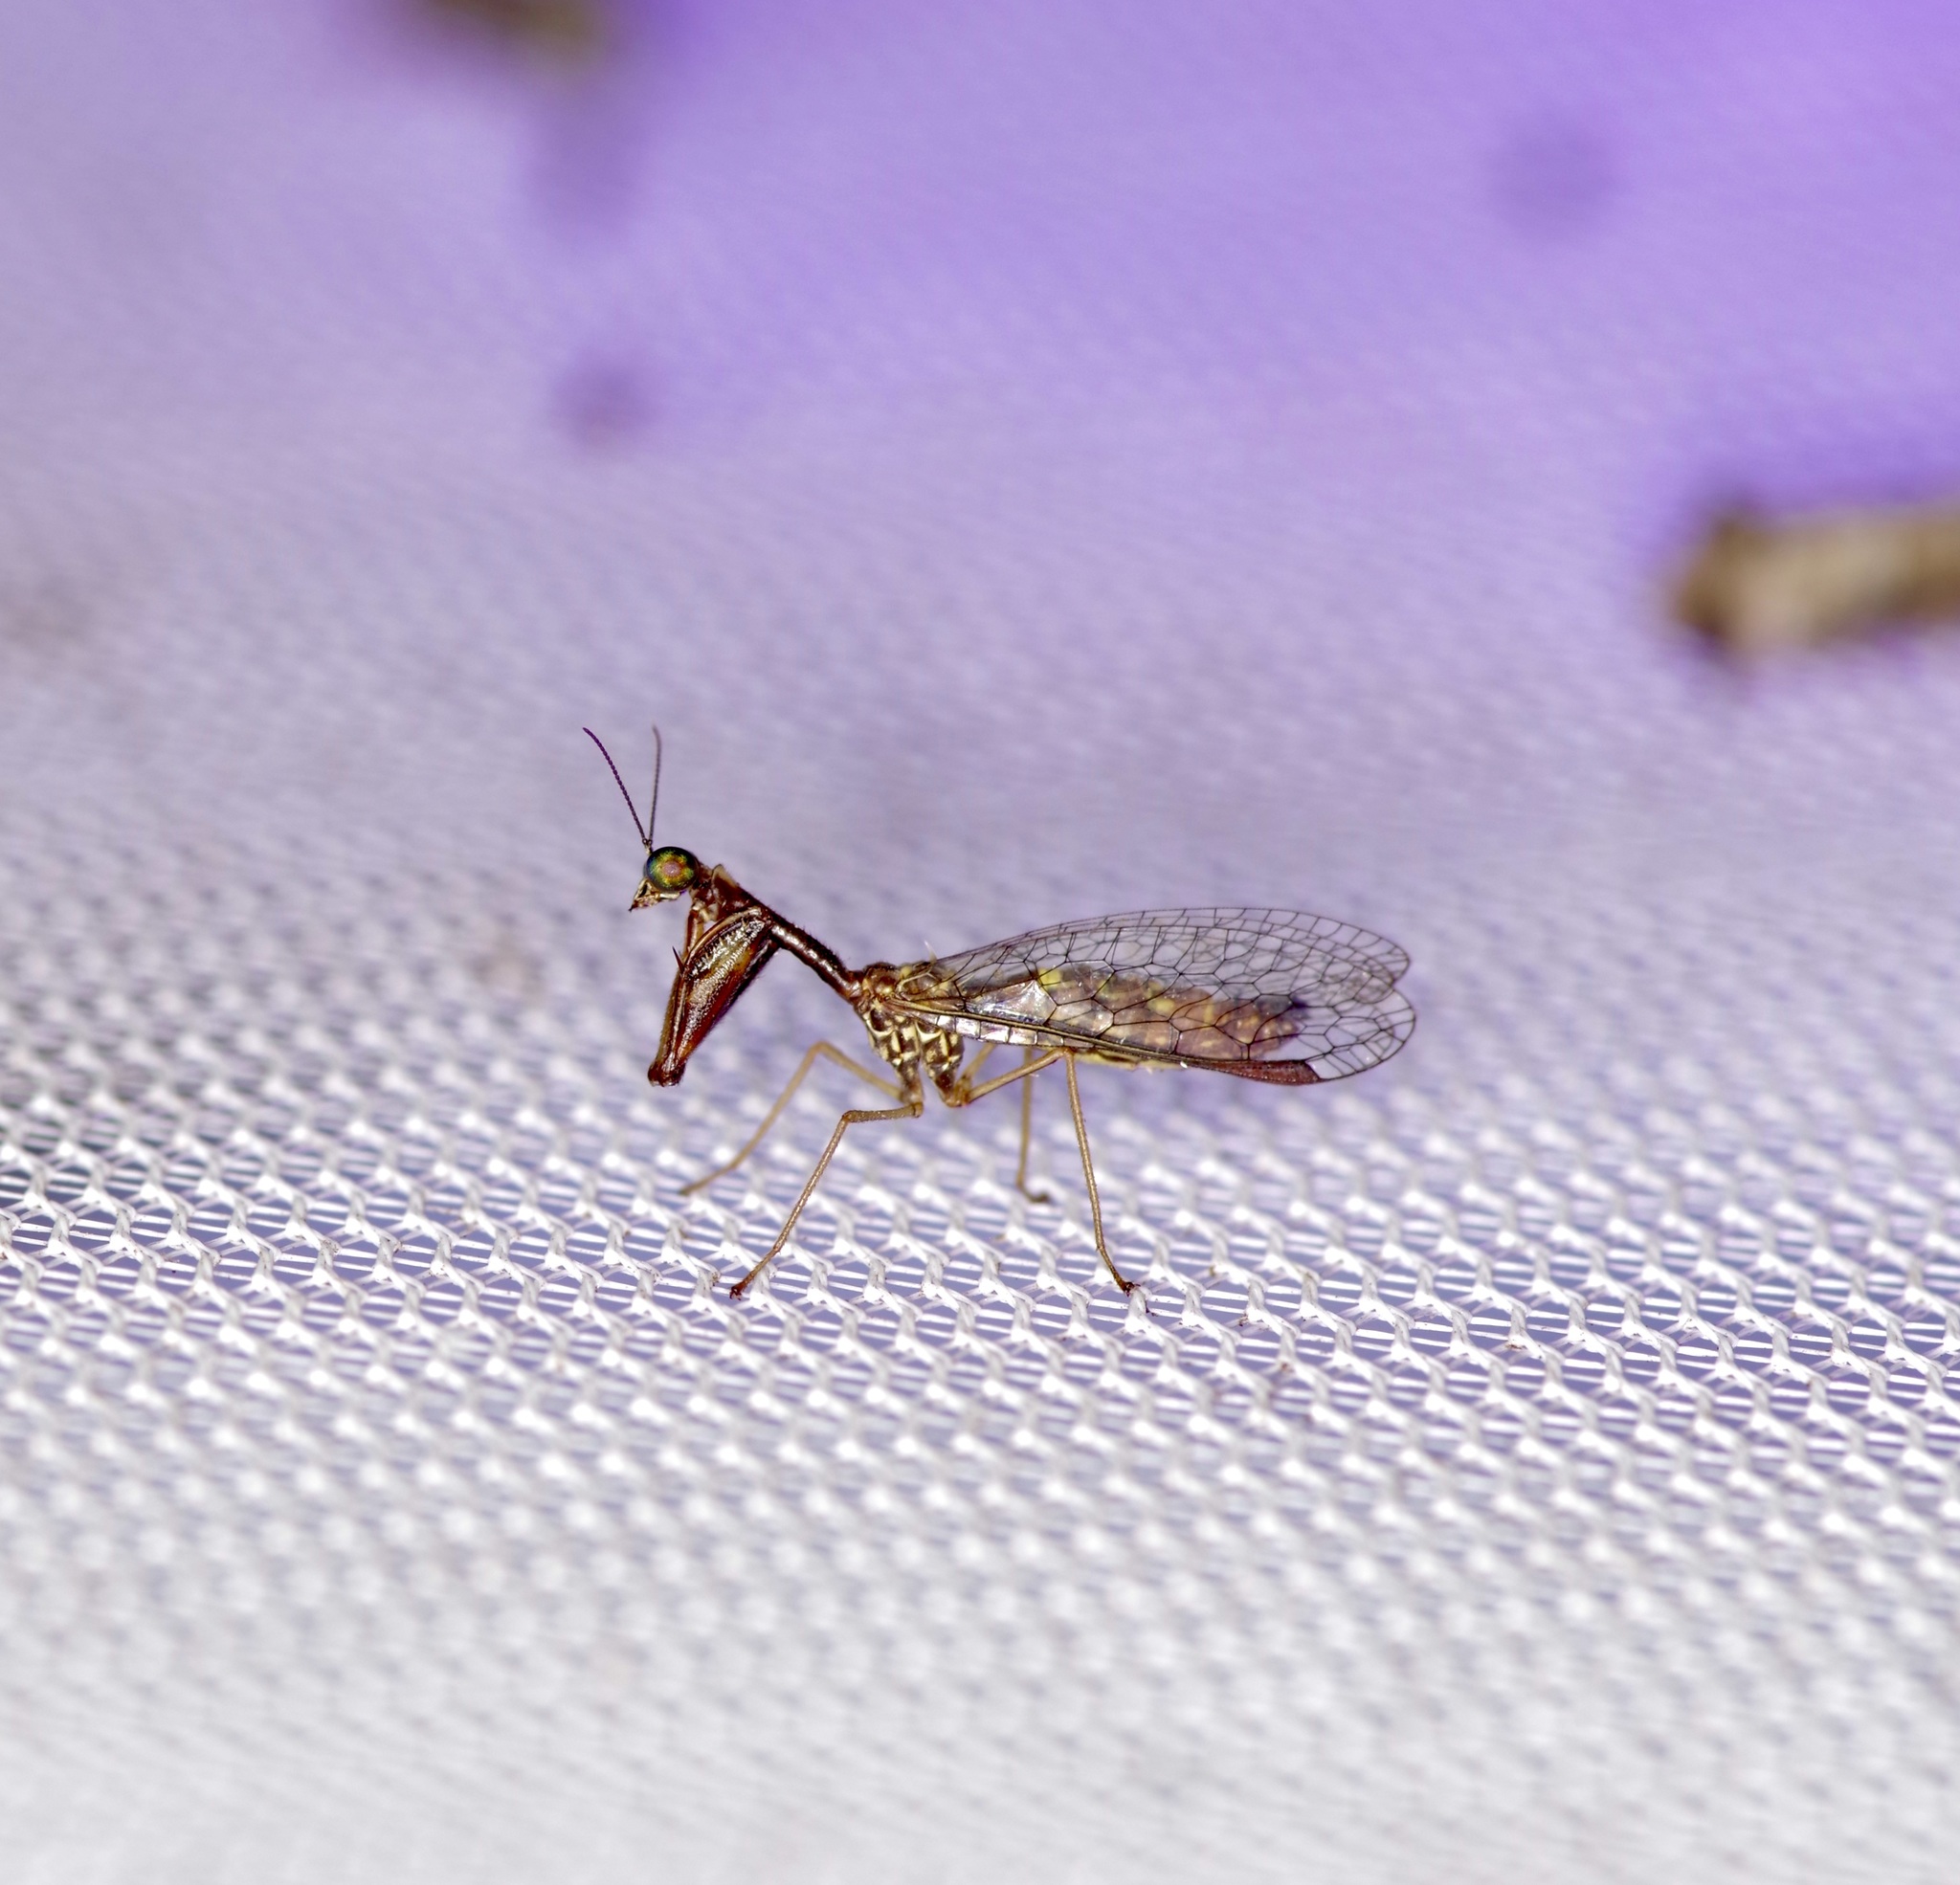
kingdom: Animalia
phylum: Arthropoda
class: Insecta
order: Neuroptera
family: Mantispidae
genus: Leptomantispa
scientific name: Leptomantispa pulchella
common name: Stevens's mantidfly
